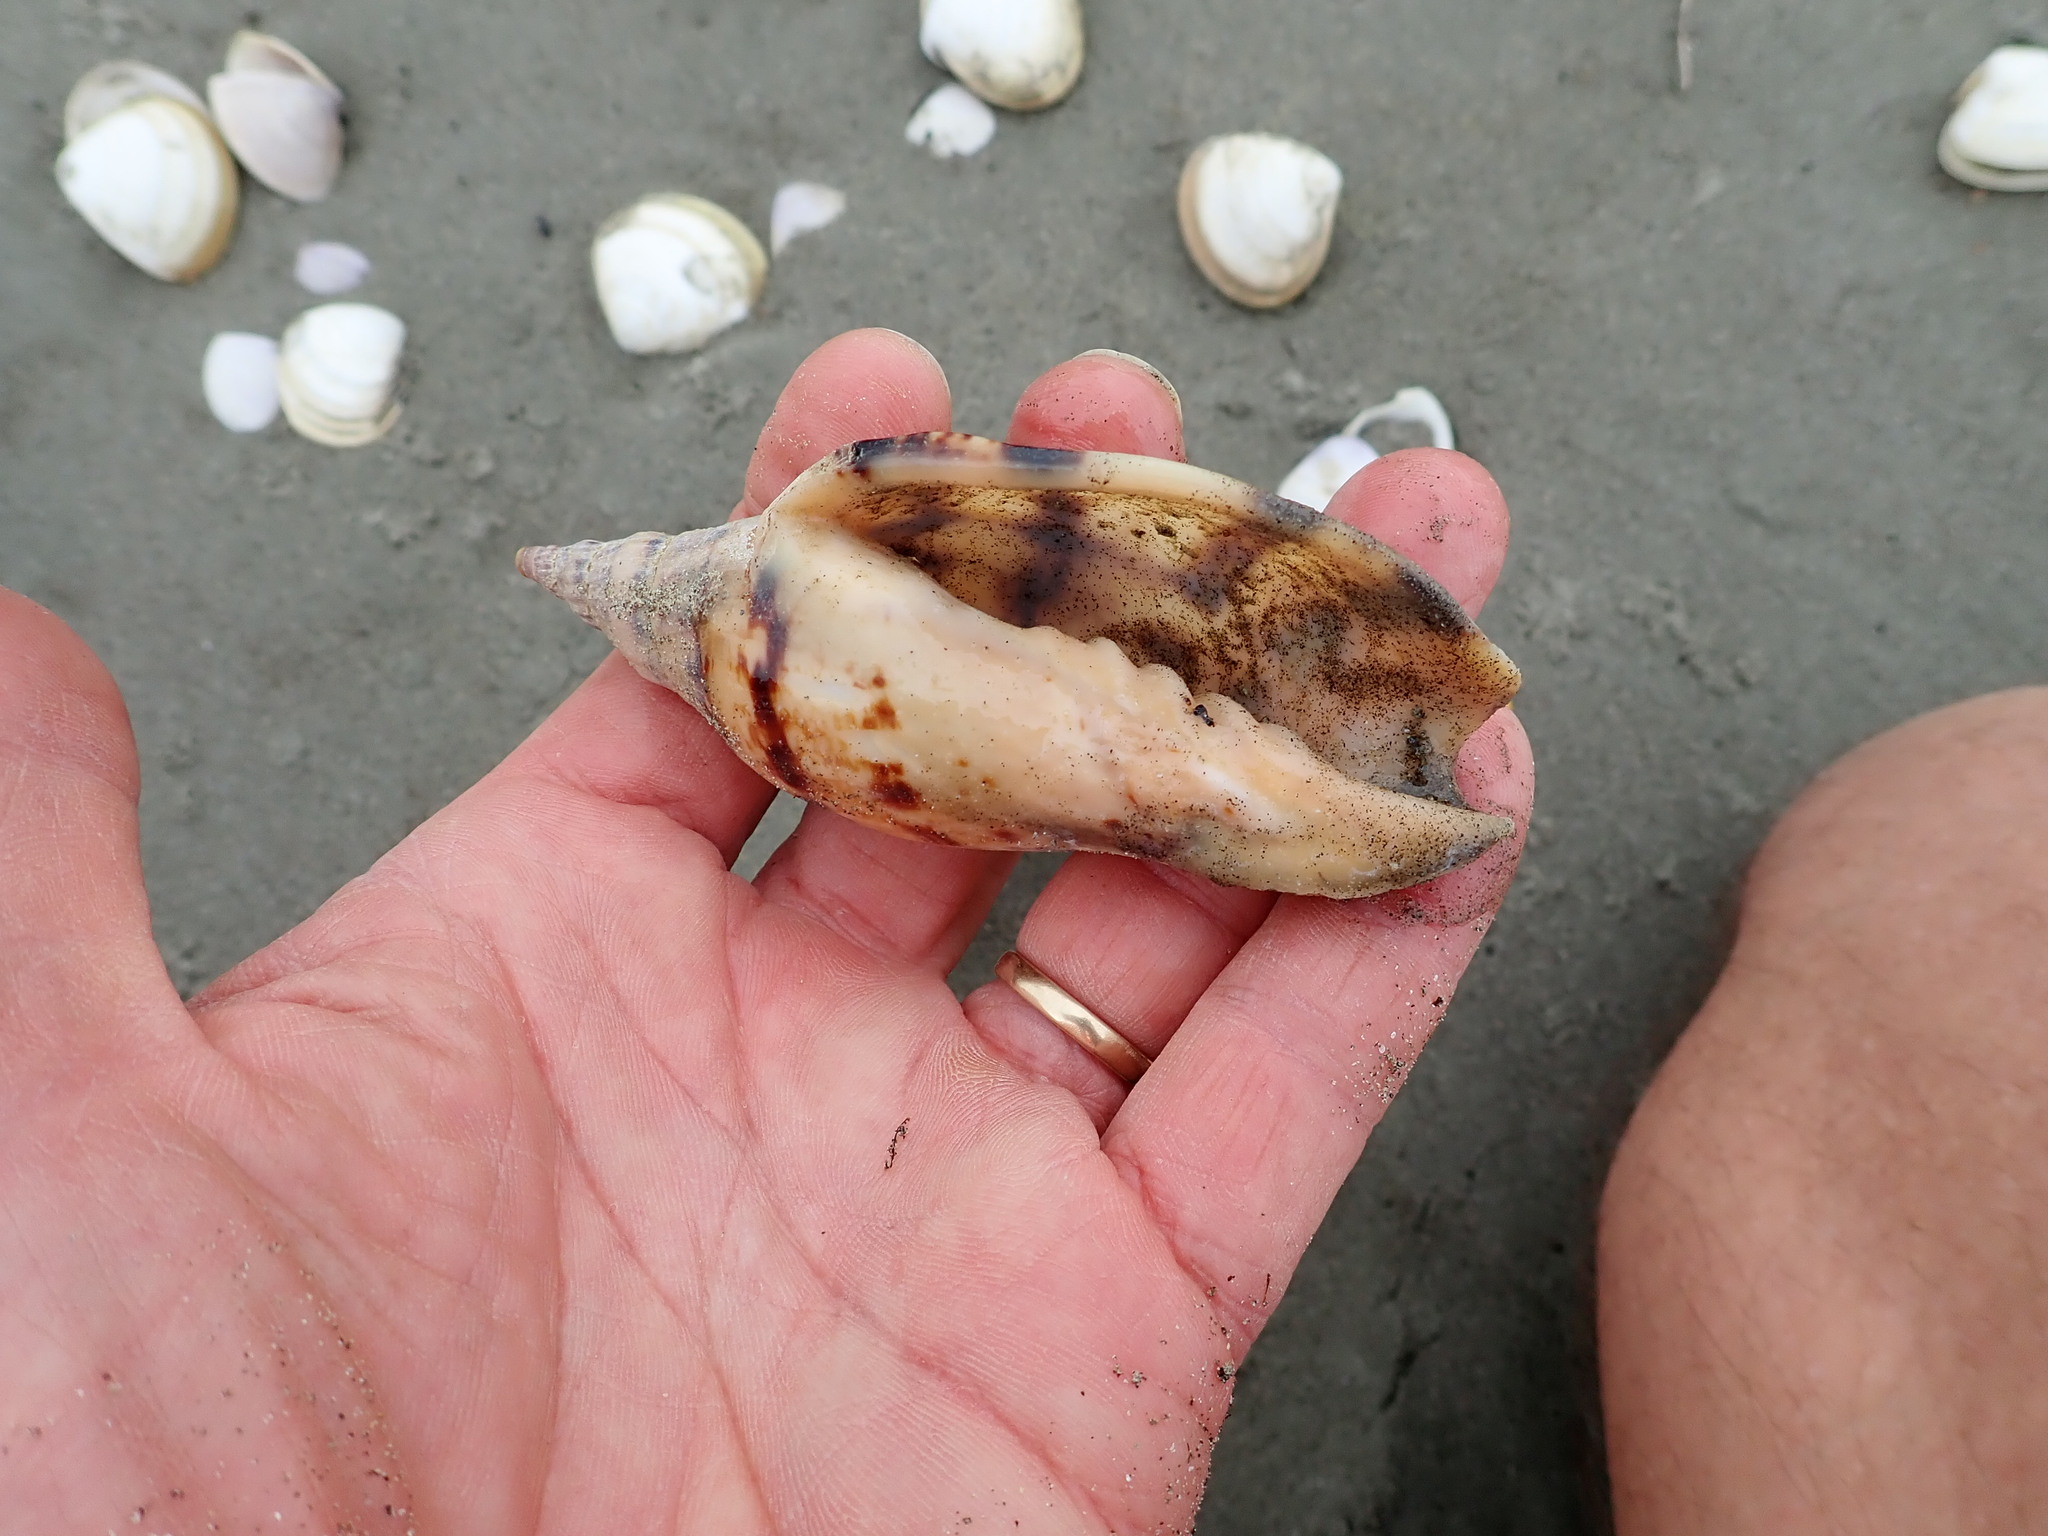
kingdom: Animalia
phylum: Mollusca
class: Gastropoda
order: Neogastropoda
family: Volutidae
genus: Alcithoe
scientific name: Alcithoe arabica
